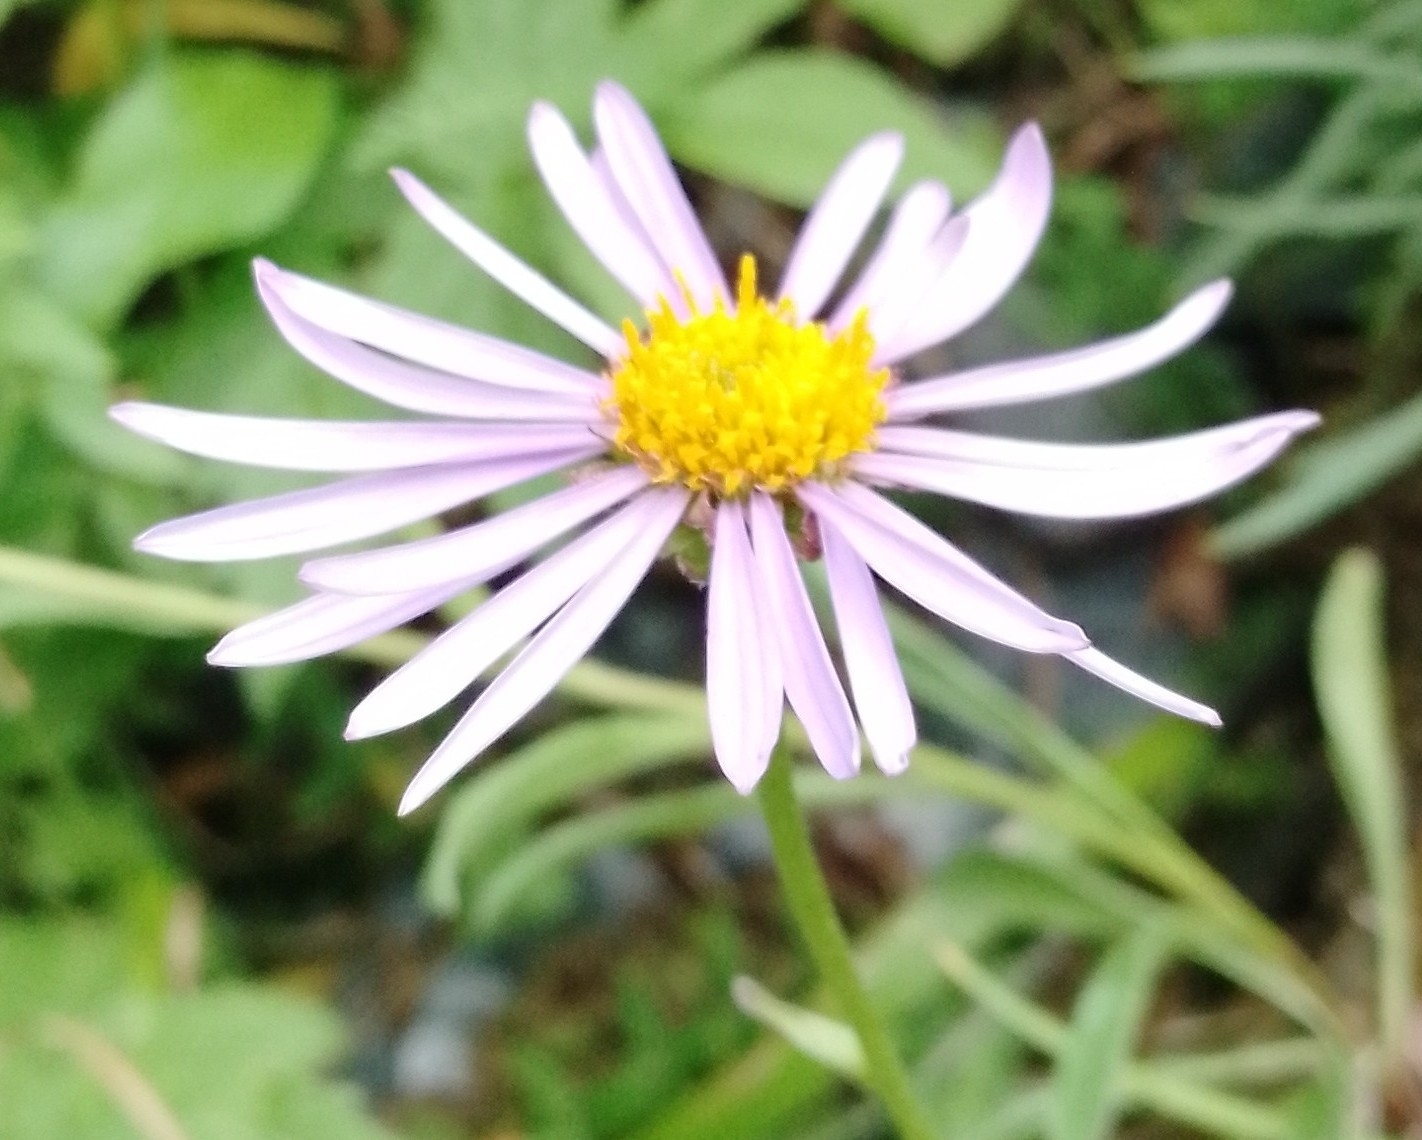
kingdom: Plantae
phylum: Tracheophyta
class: Magnoliopsida
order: Asterales
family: Asteraceae
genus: Aster
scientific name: Aster alpinus
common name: Alpine aster
